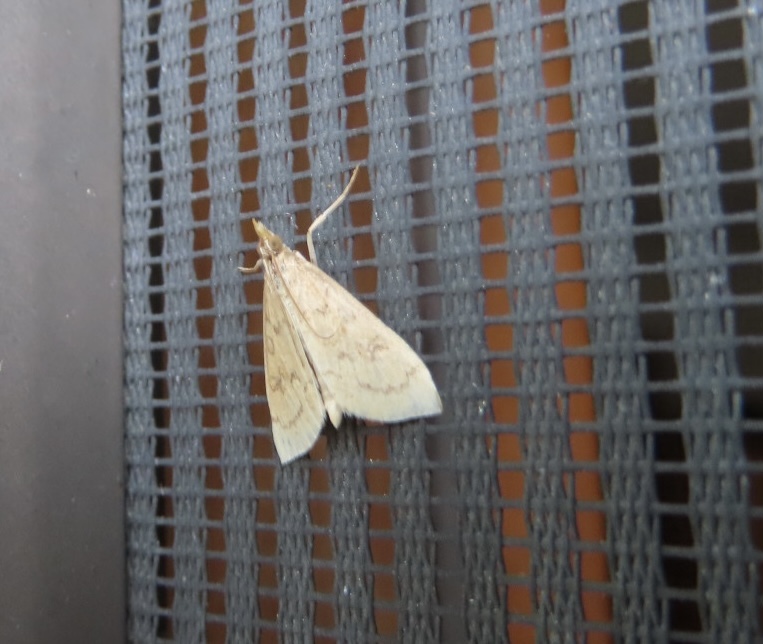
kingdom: Animalia
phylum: Arthropoda
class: Insecta
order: Lepidoptera
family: Crambidae
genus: Udea
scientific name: Udea rubigalis
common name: Celery leaftier moth
